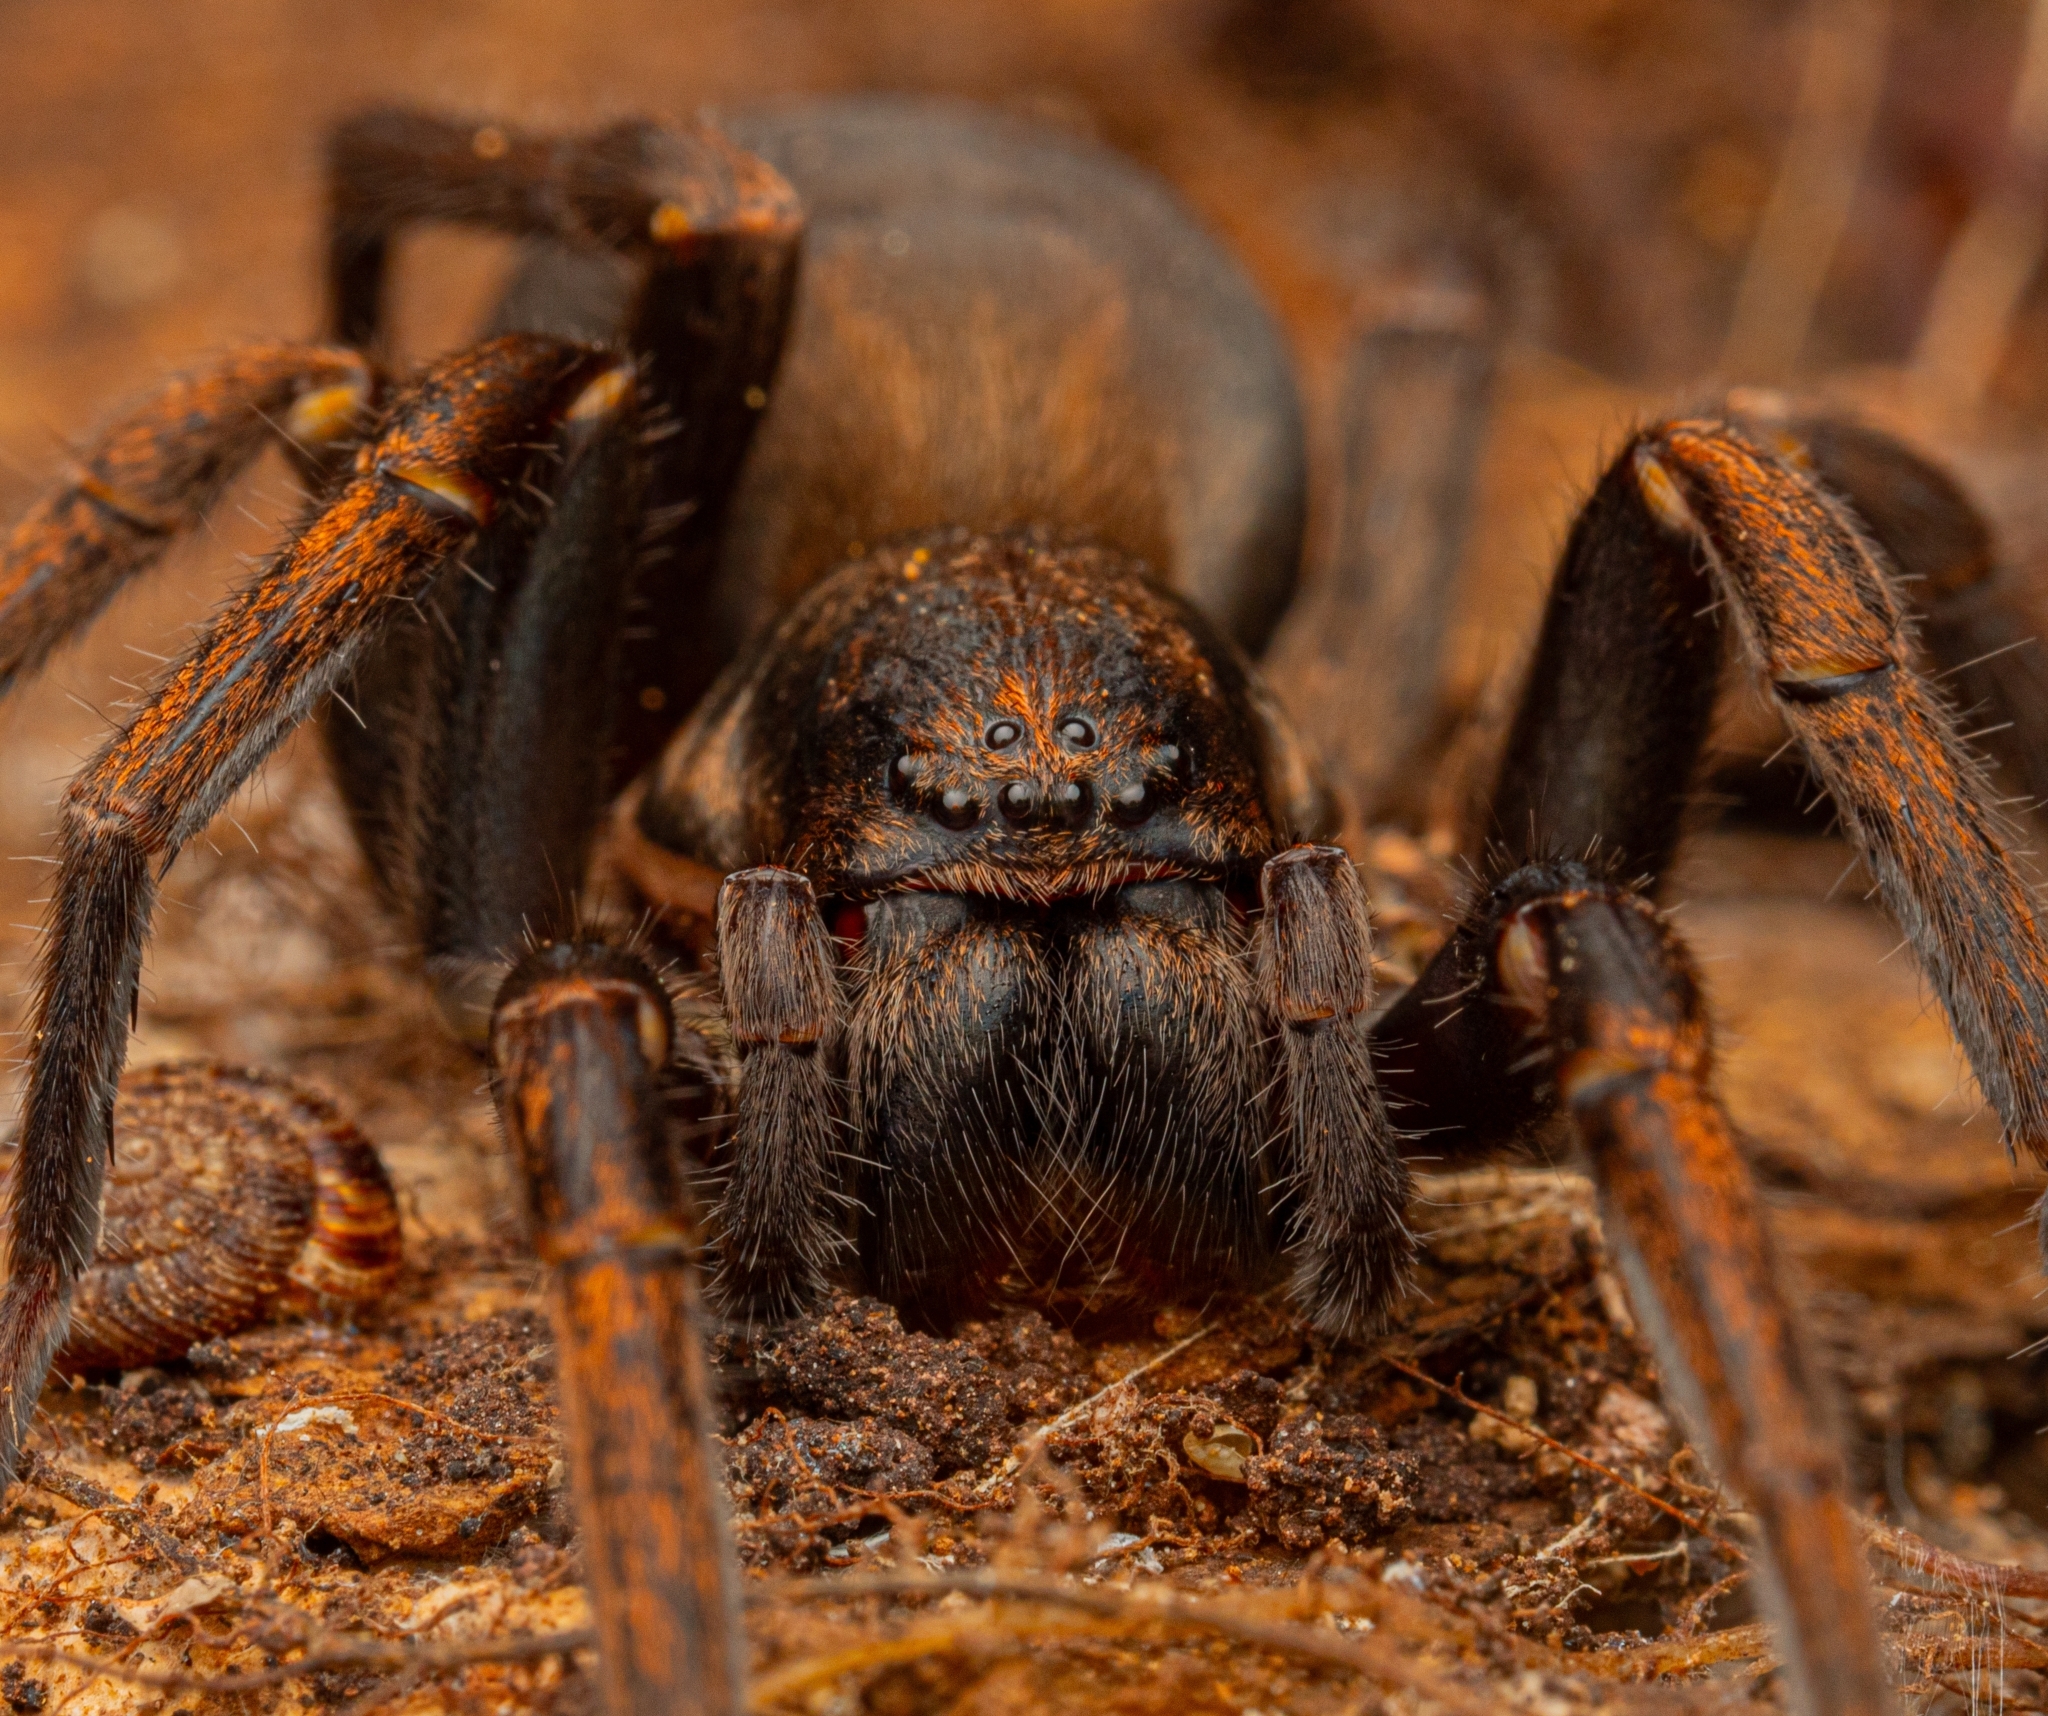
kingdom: Animalia
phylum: Arthropoda
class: Arachnida
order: Araneae
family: Zoropsidae
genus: Uliodon
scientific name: Uliodon albopunctatus
